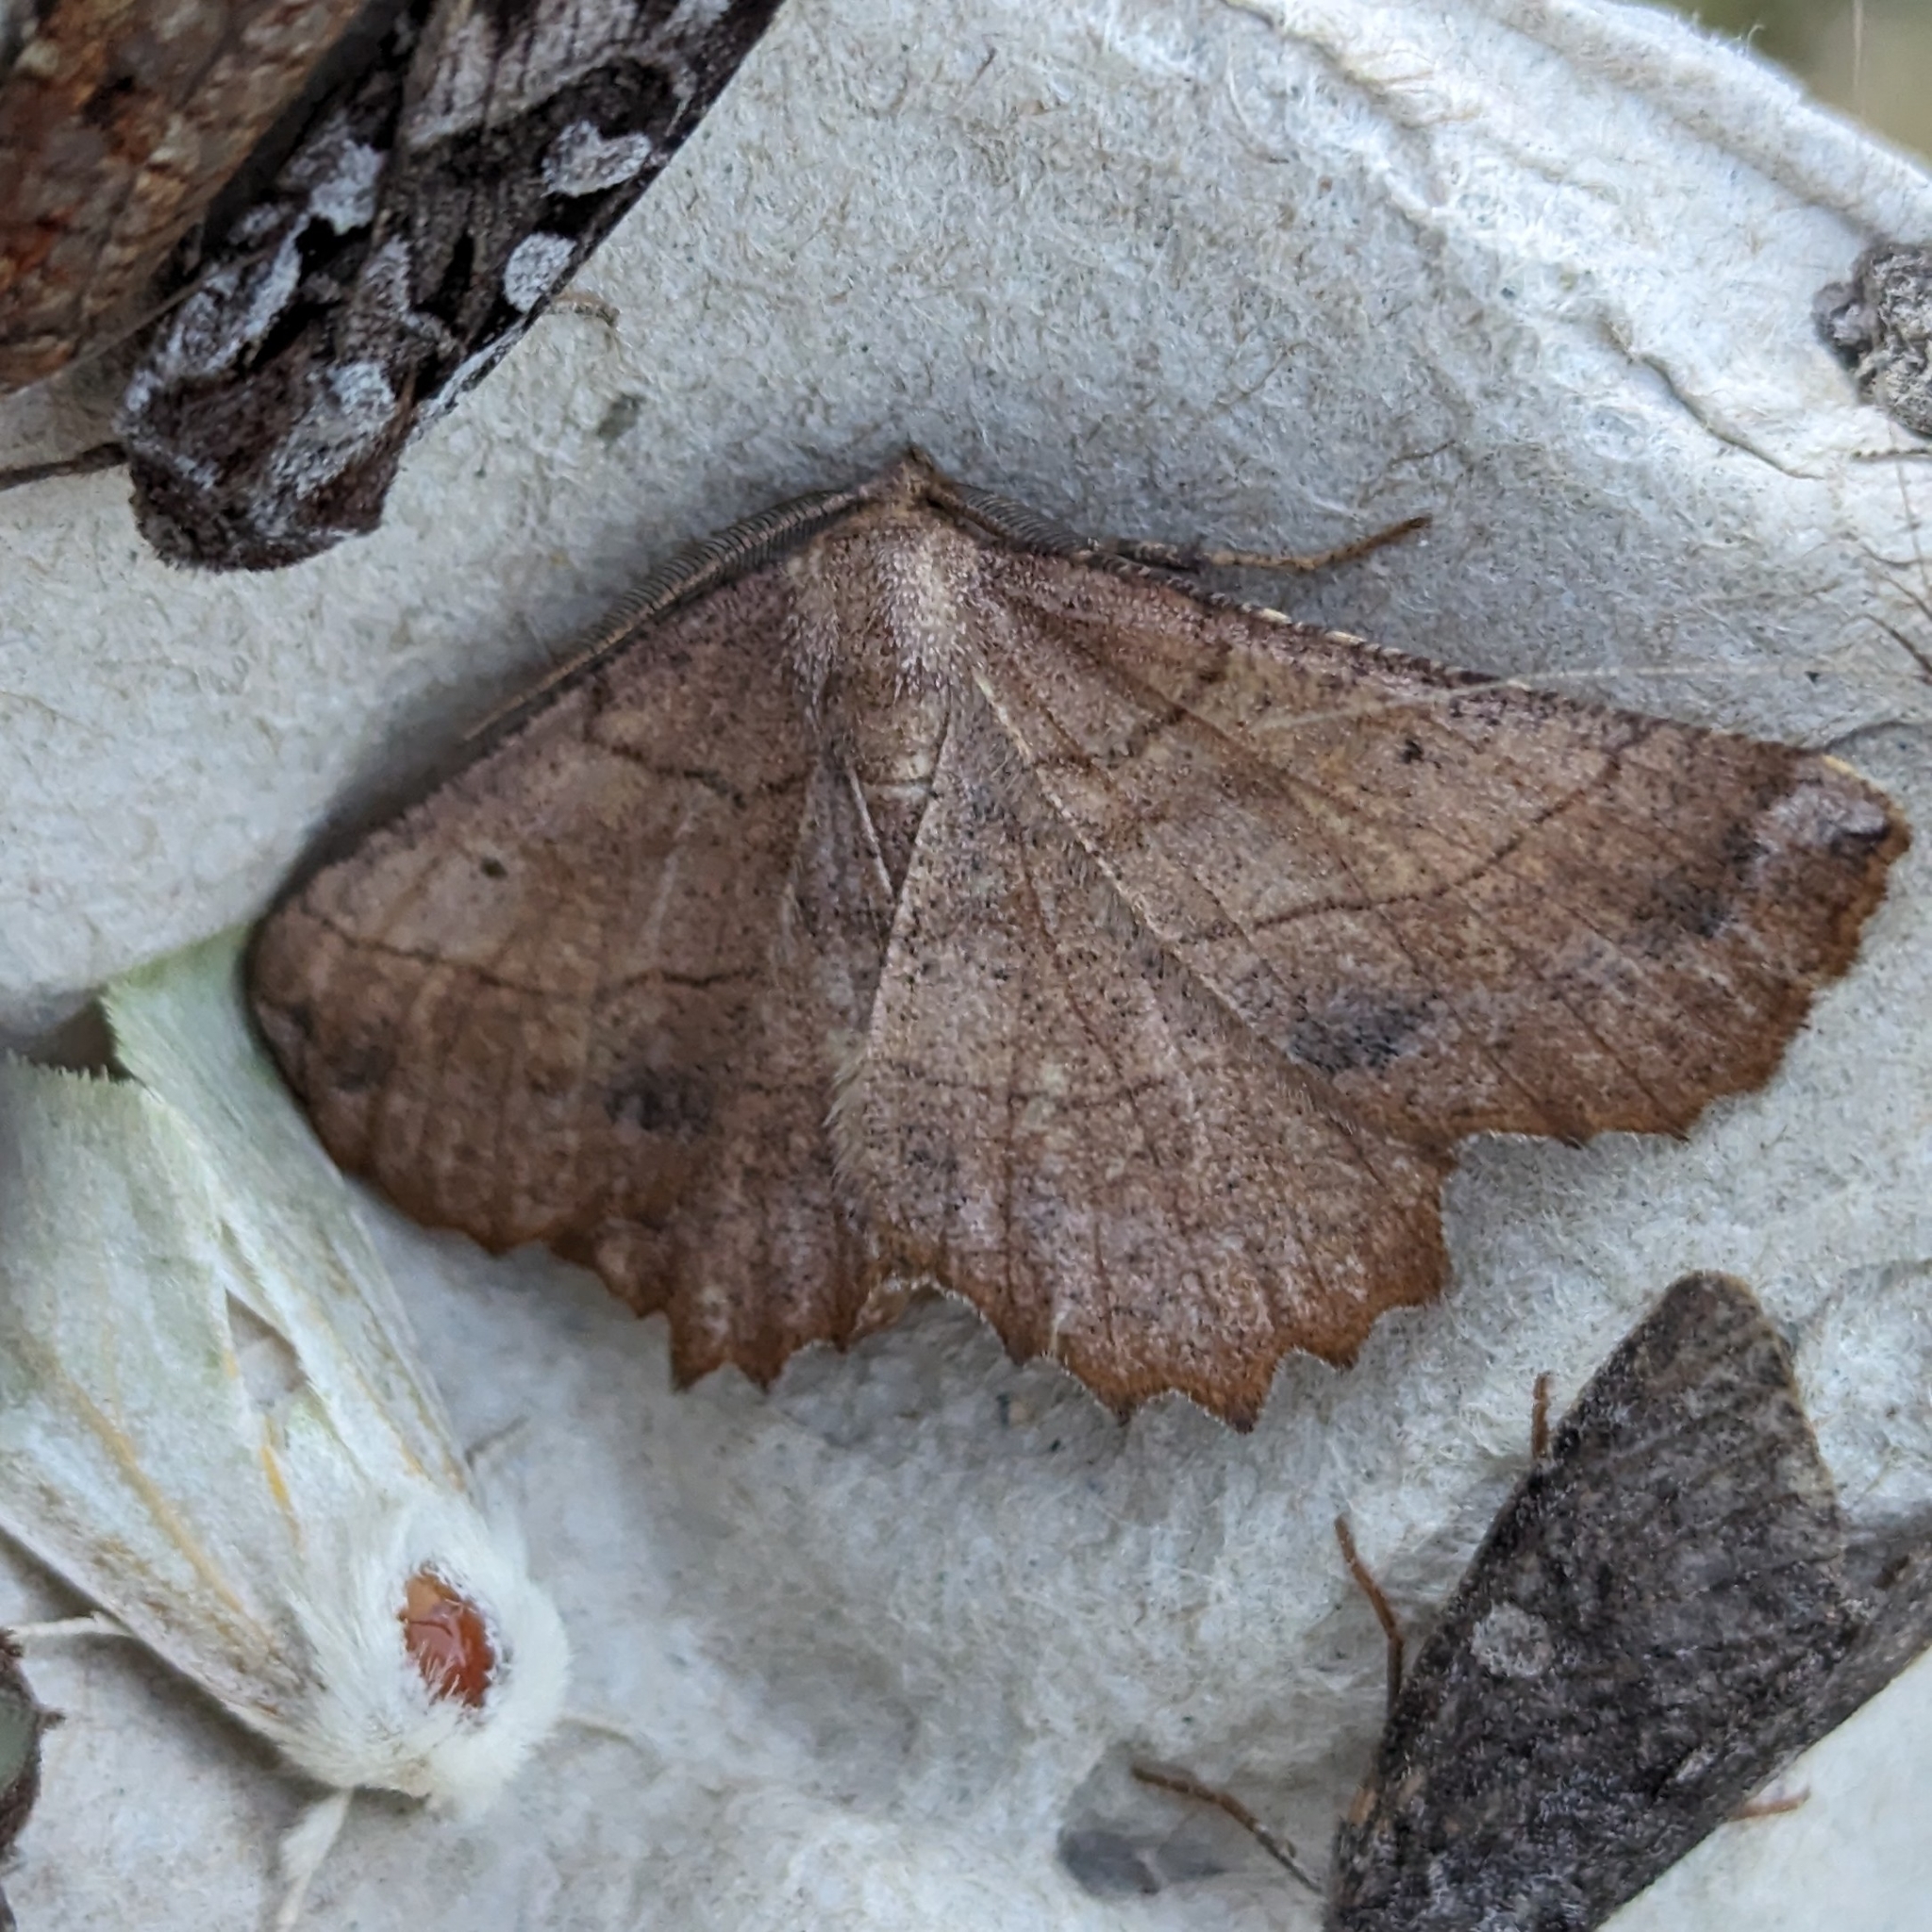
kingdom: Animalia
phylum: Arthropoda
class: Insecta
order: Lepidoptera
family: Geometridae
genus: Euchlaena
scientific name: Euchlaena johnsonaria
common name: Johnson's euchlaena
